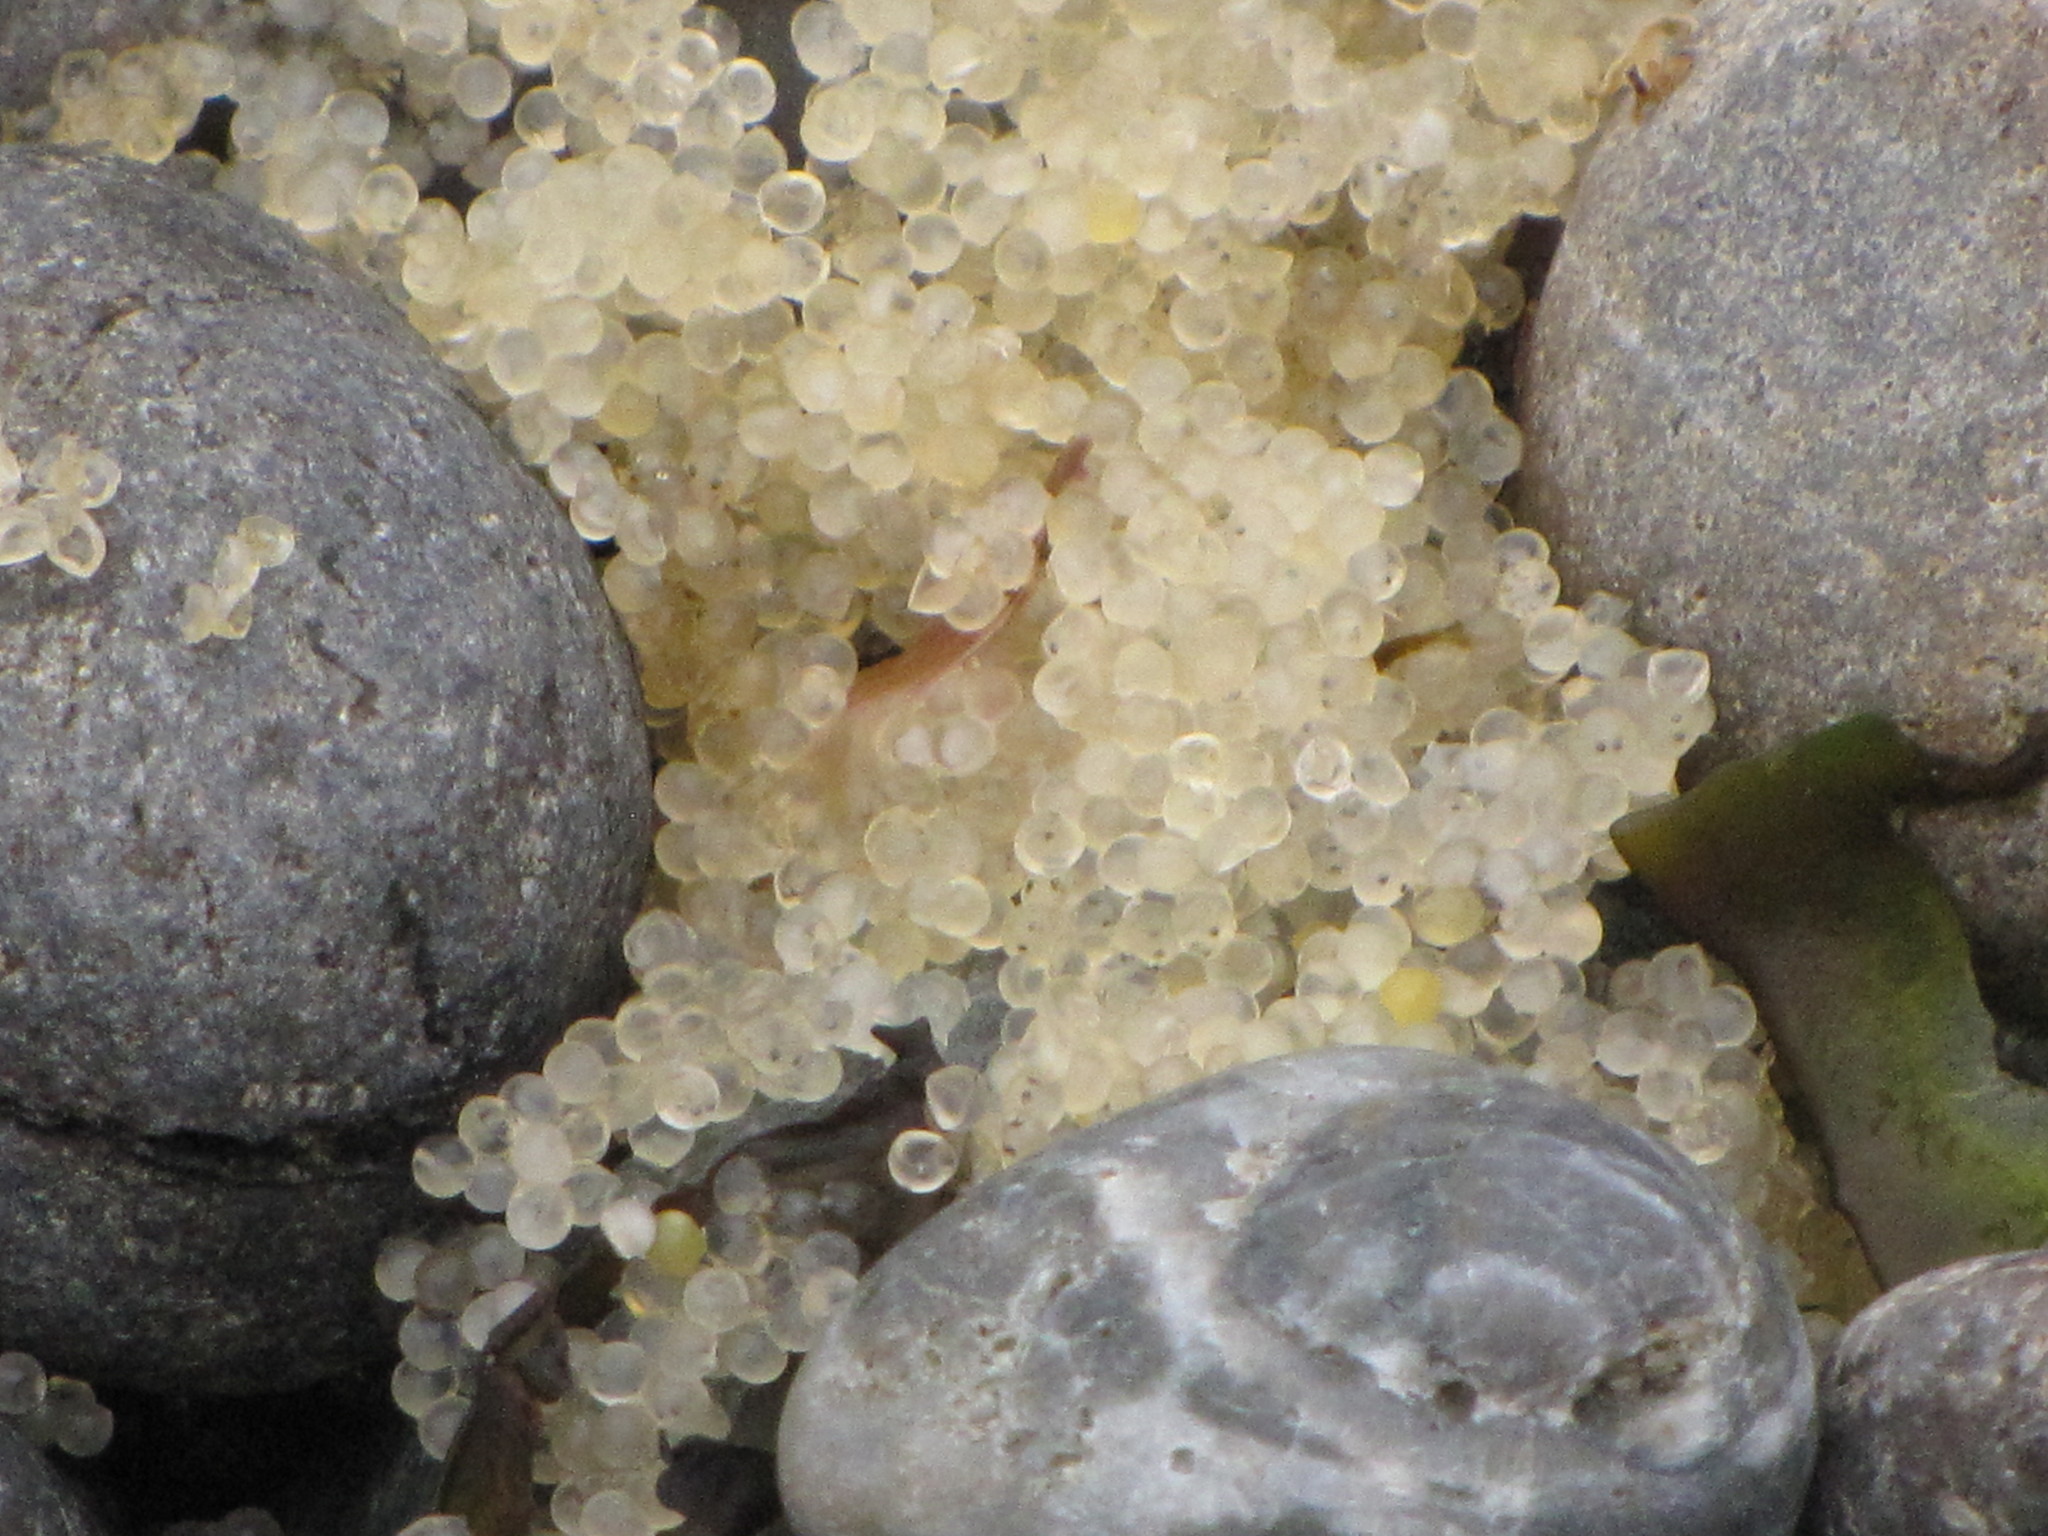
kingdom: Animalia
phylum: Chordata
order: Clupeiformes
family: Clupeidae
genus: Clupea
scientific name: Clupea pallasii
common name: Pacific herring
